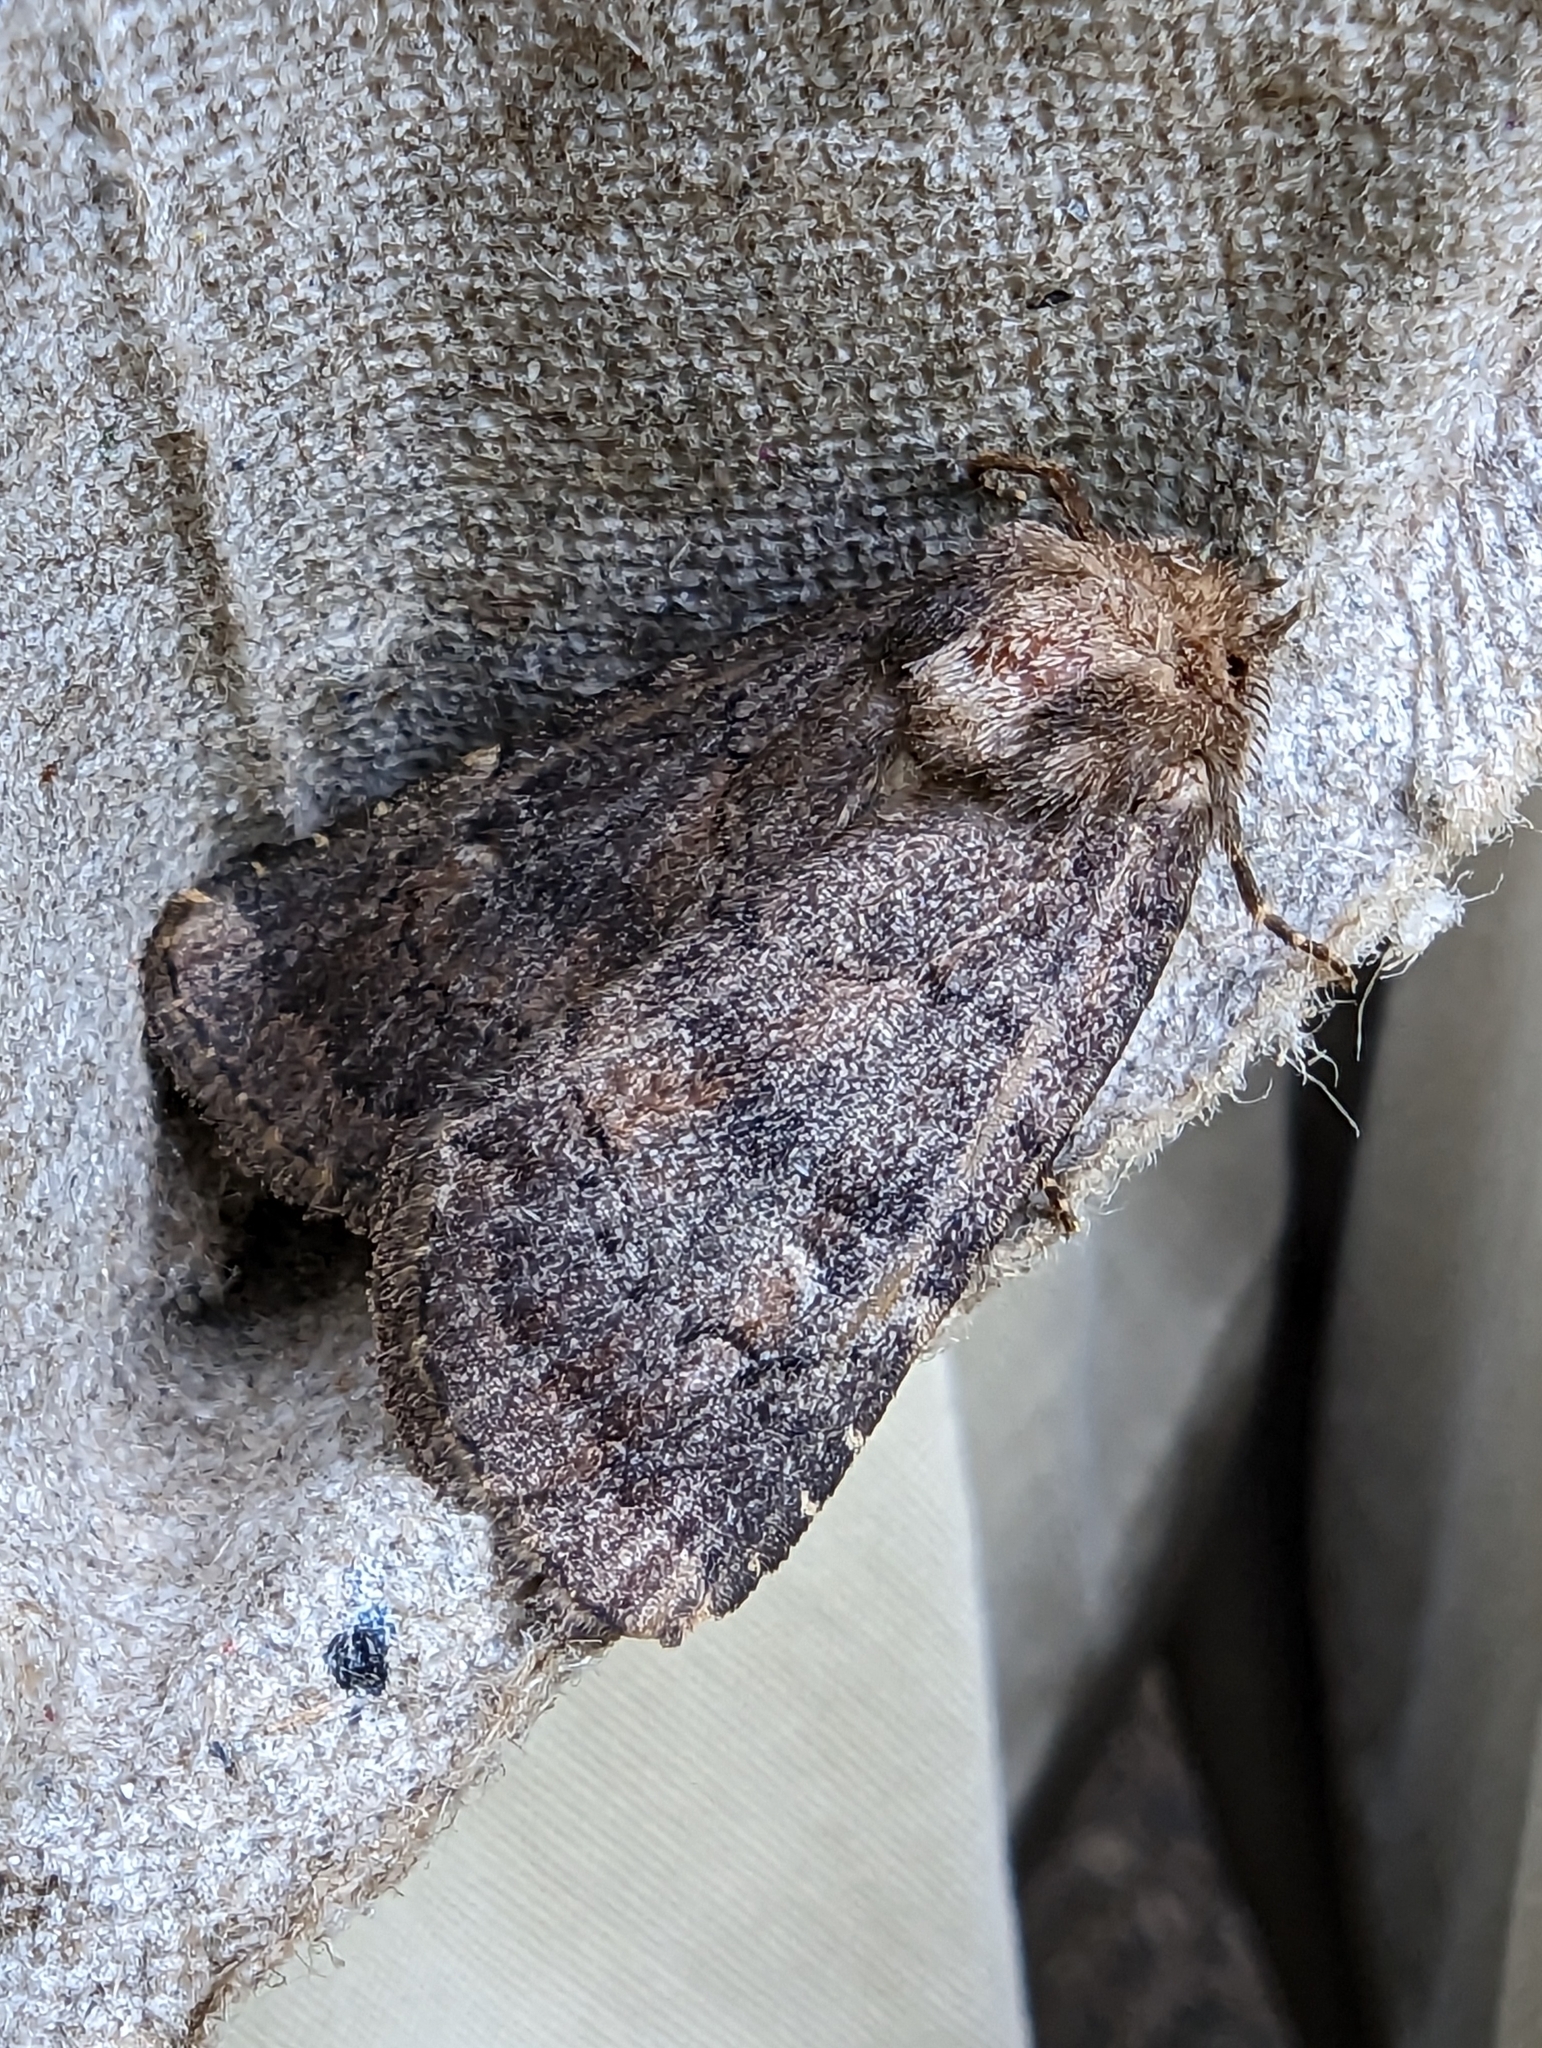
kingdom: Animalia
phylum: Arthropoda
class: Insecta
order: Lepidoptera
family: Noctuidae
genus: Charanyca
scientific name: Charanyca ferruginea
